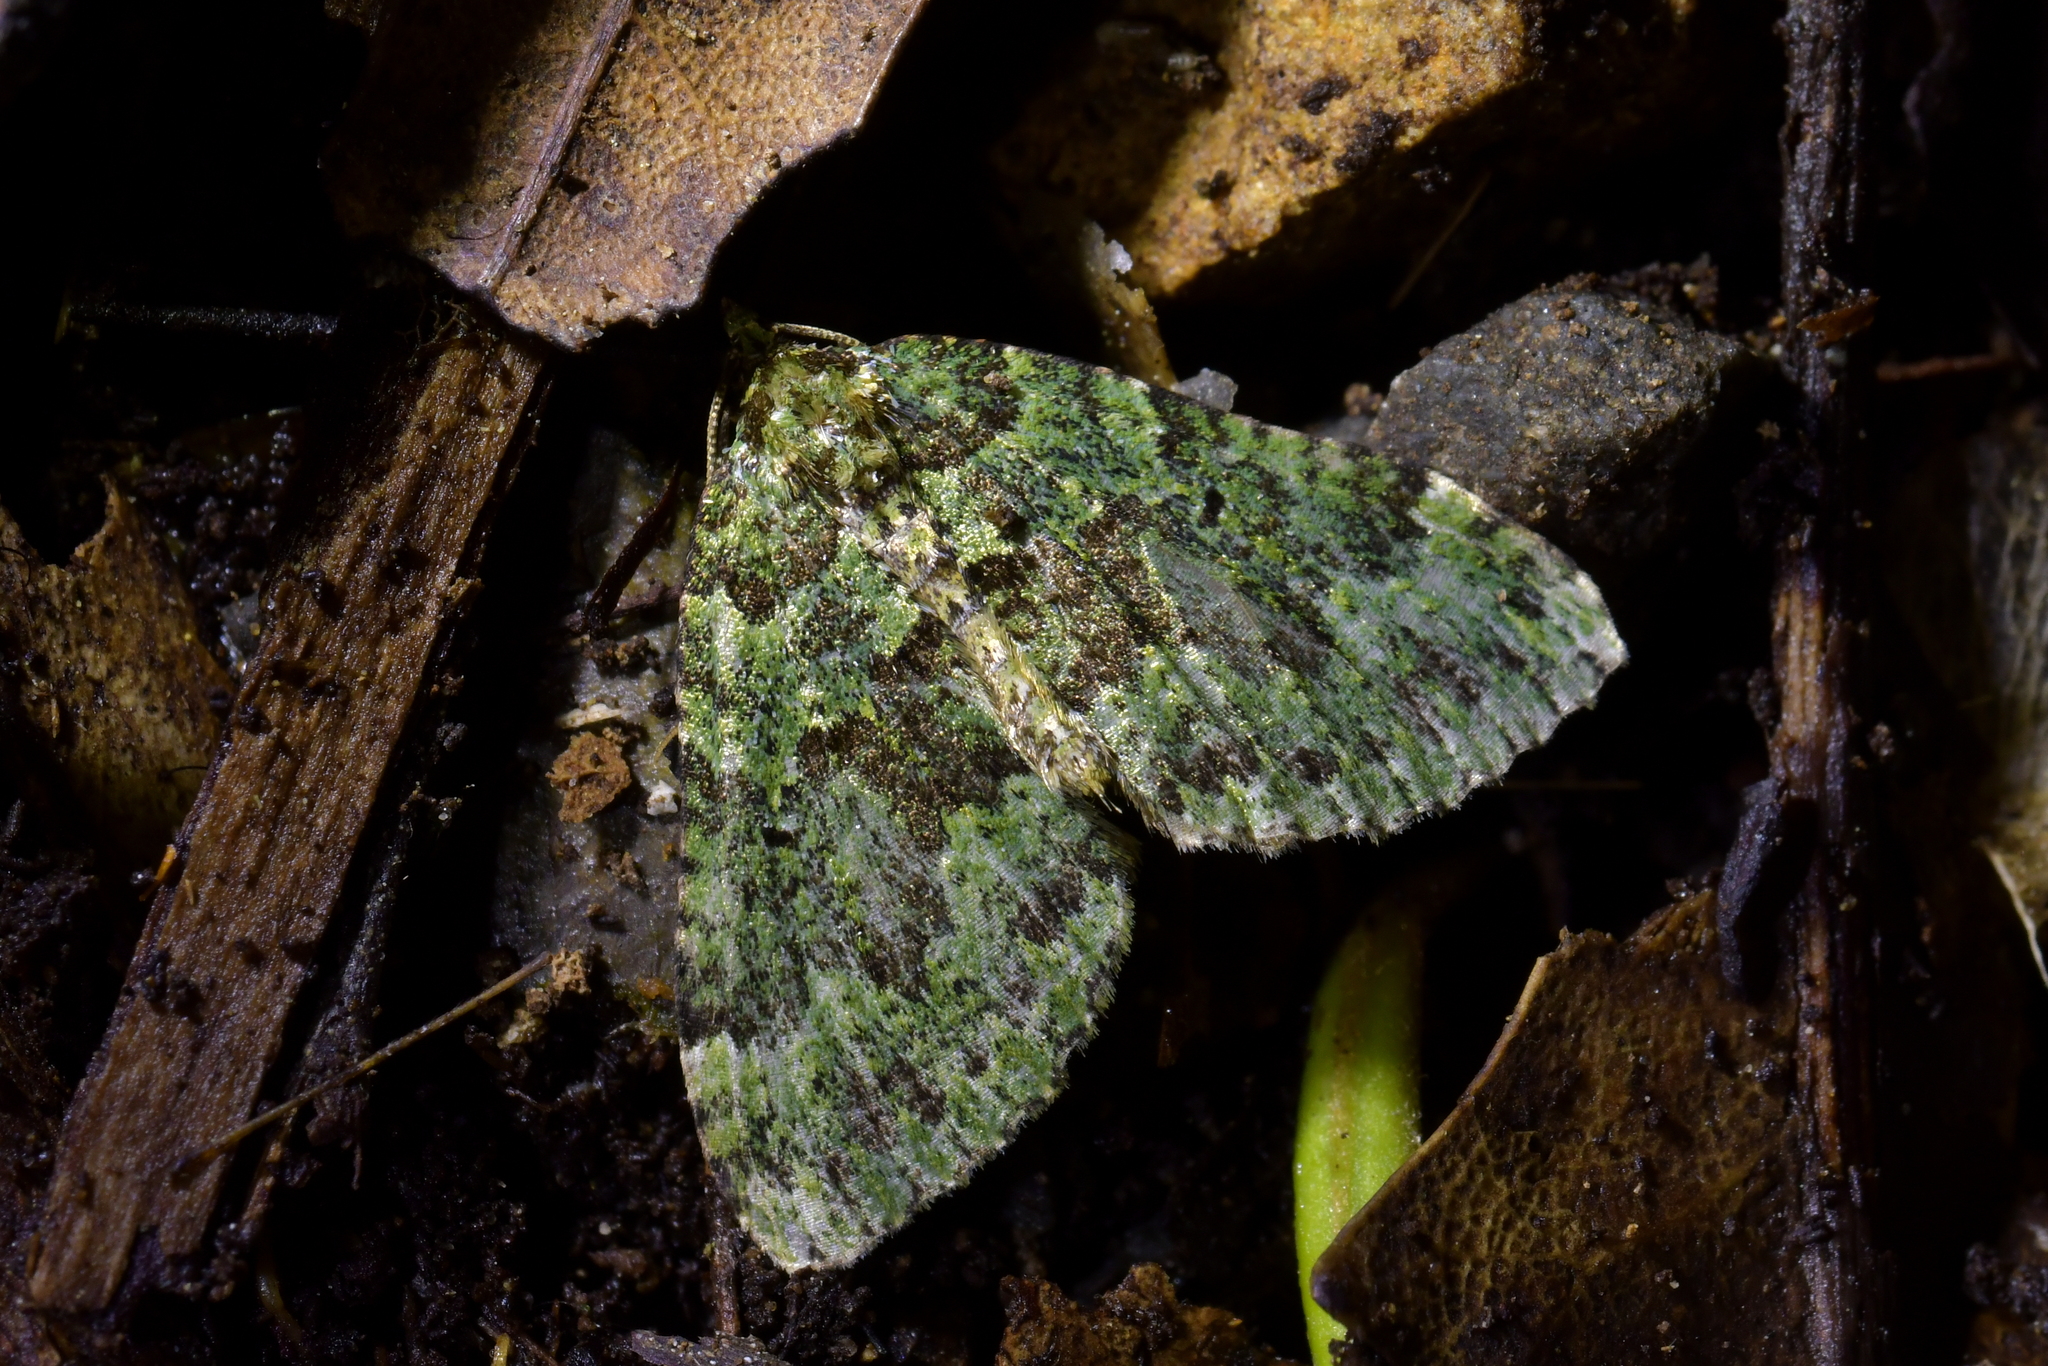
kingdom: Animalia
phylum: Arthropoda
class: Insecta
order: Lepidoptera
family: Geometridae
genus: Austrocidaria
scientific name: Austrocidaria callichlora
